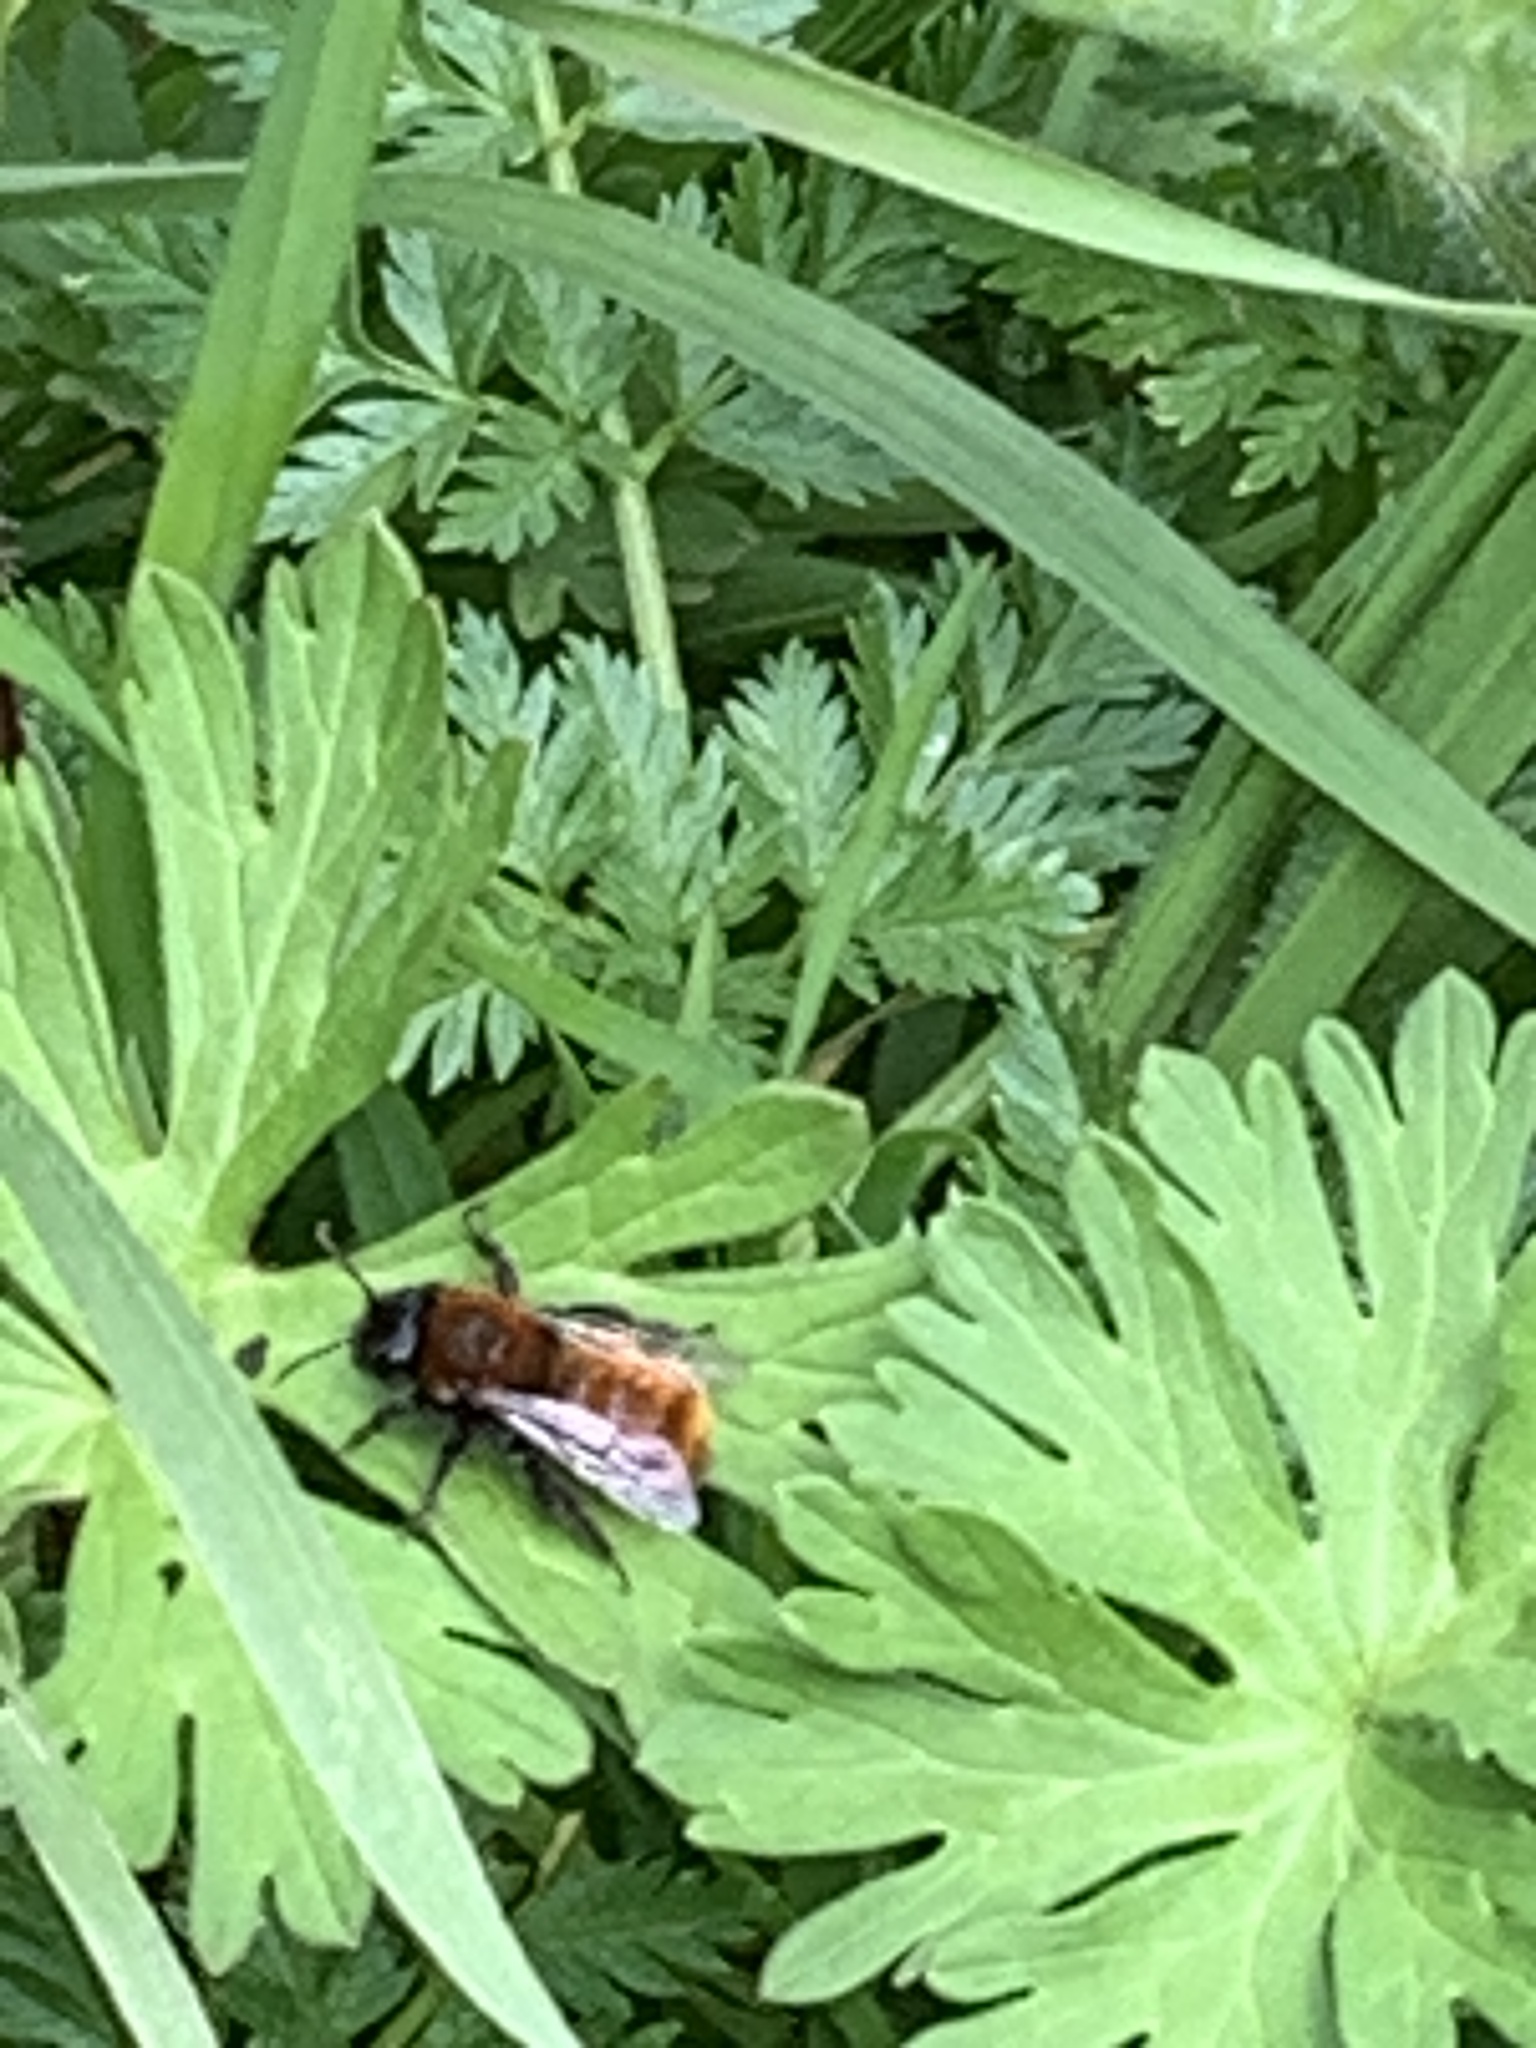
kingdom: Animalia
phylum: Arthropoda
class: Insecta
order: Hymenoptera
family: Andrenidae
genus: Andrena
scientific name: Andrena fulva
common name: Tawny mining bee
